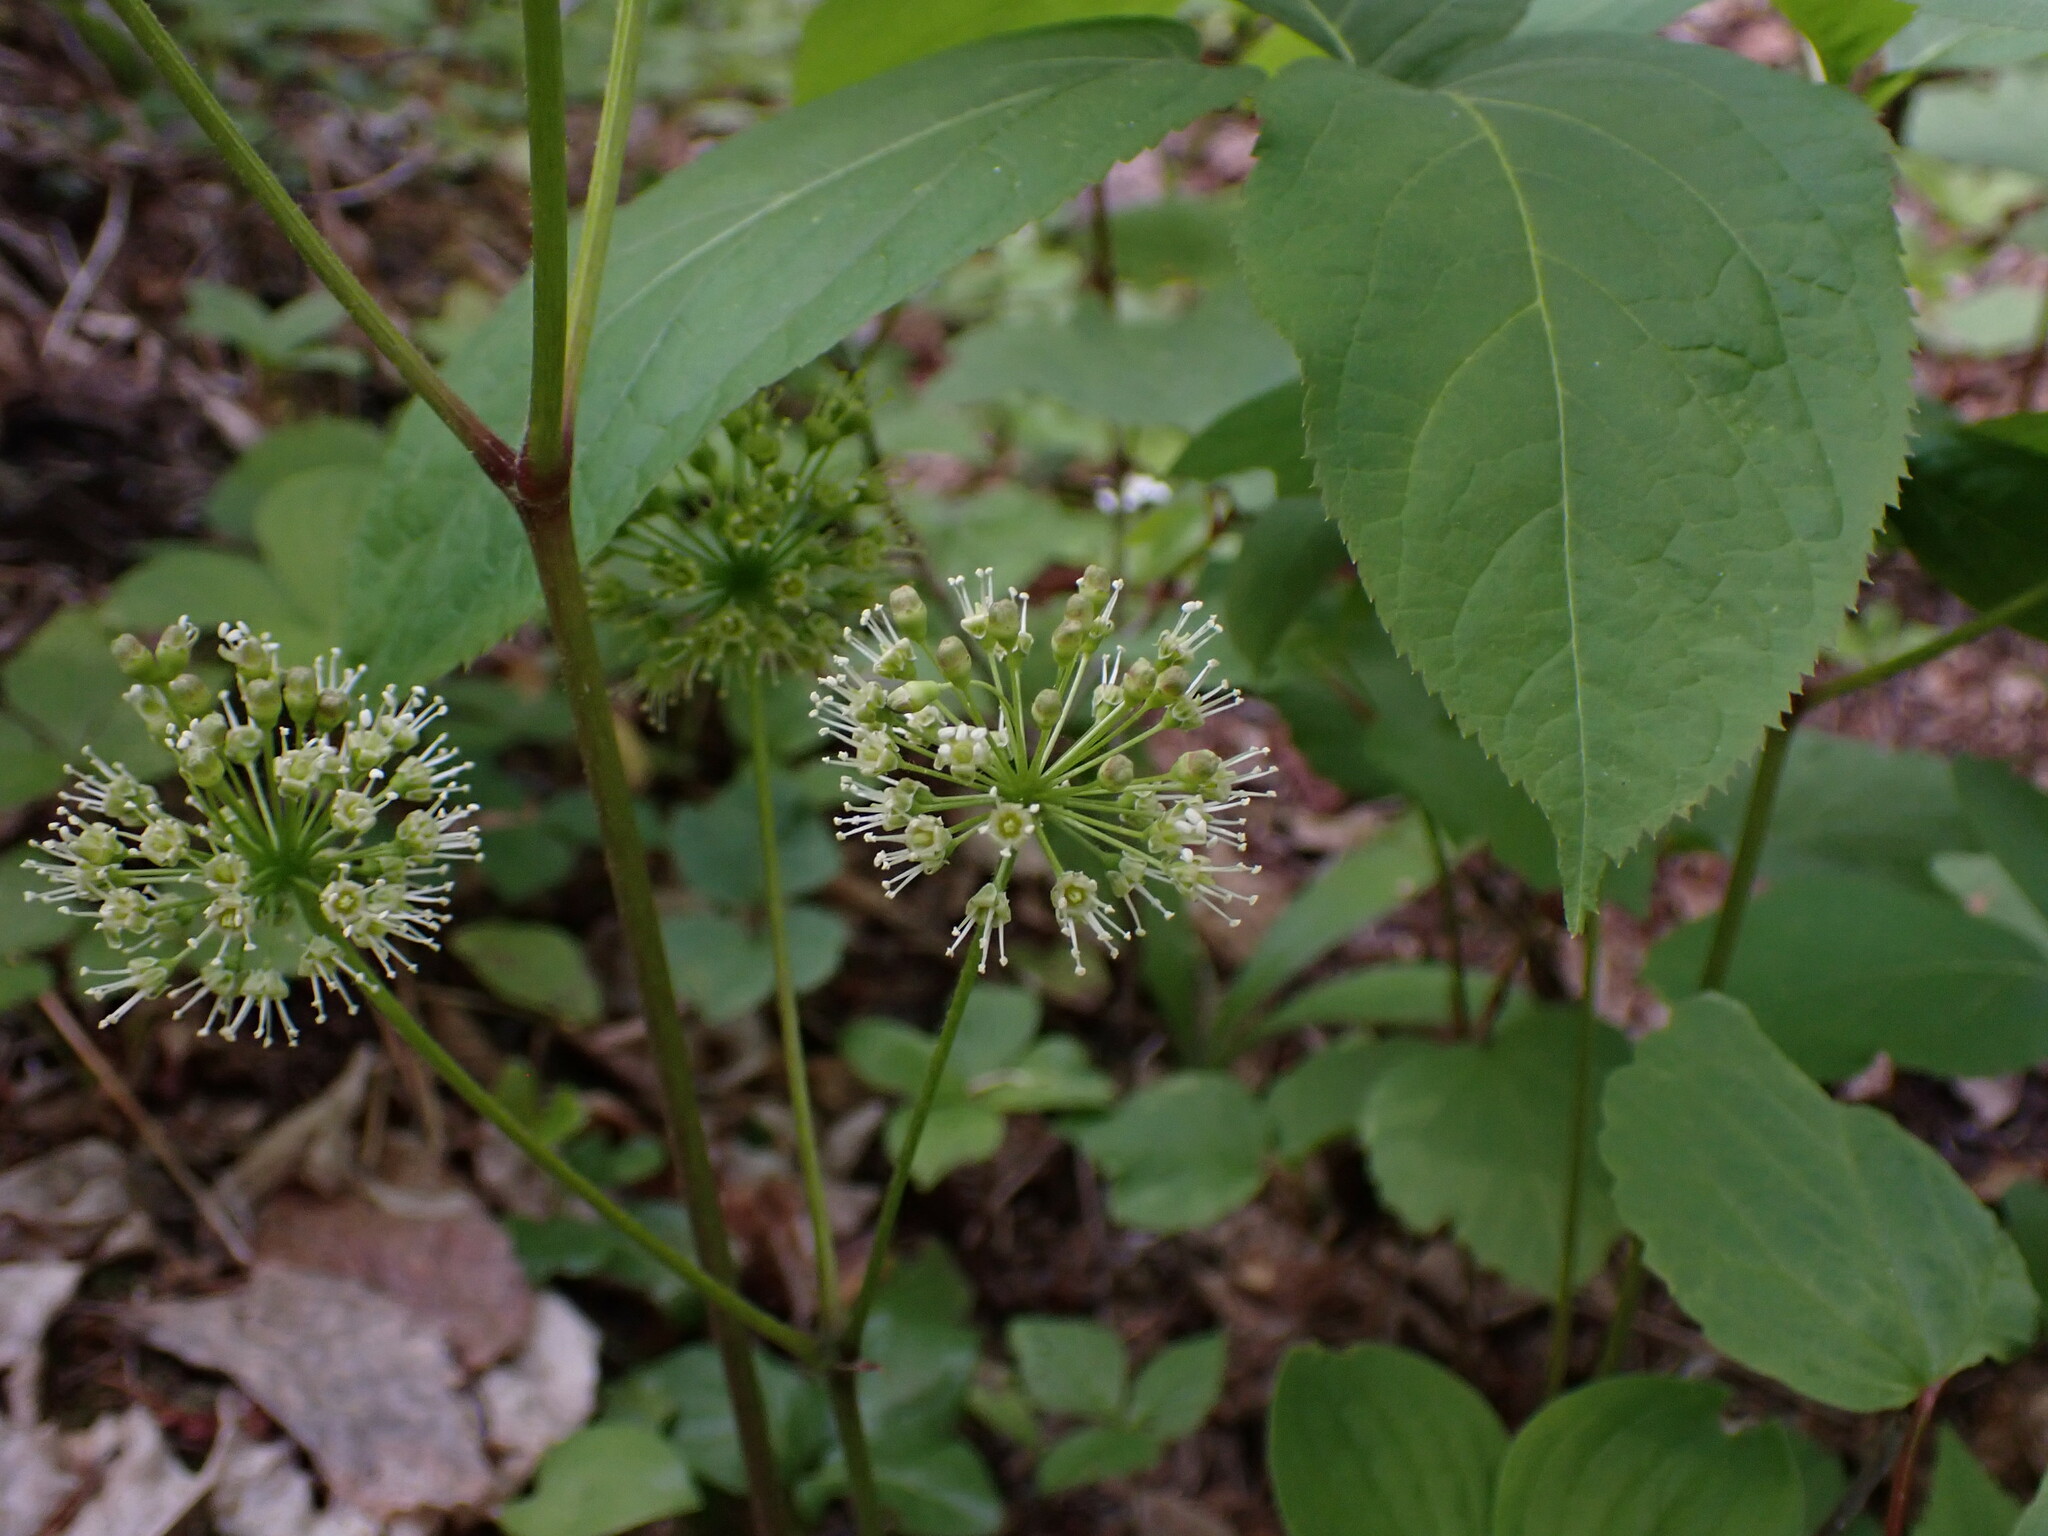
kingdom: Plantae
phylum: Tracheophyta
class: Magnoliopsida
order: Apiales
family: Araliaceae
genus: Aralia
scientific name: Aralia nudicaulis
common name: Wild sarsaparilla
